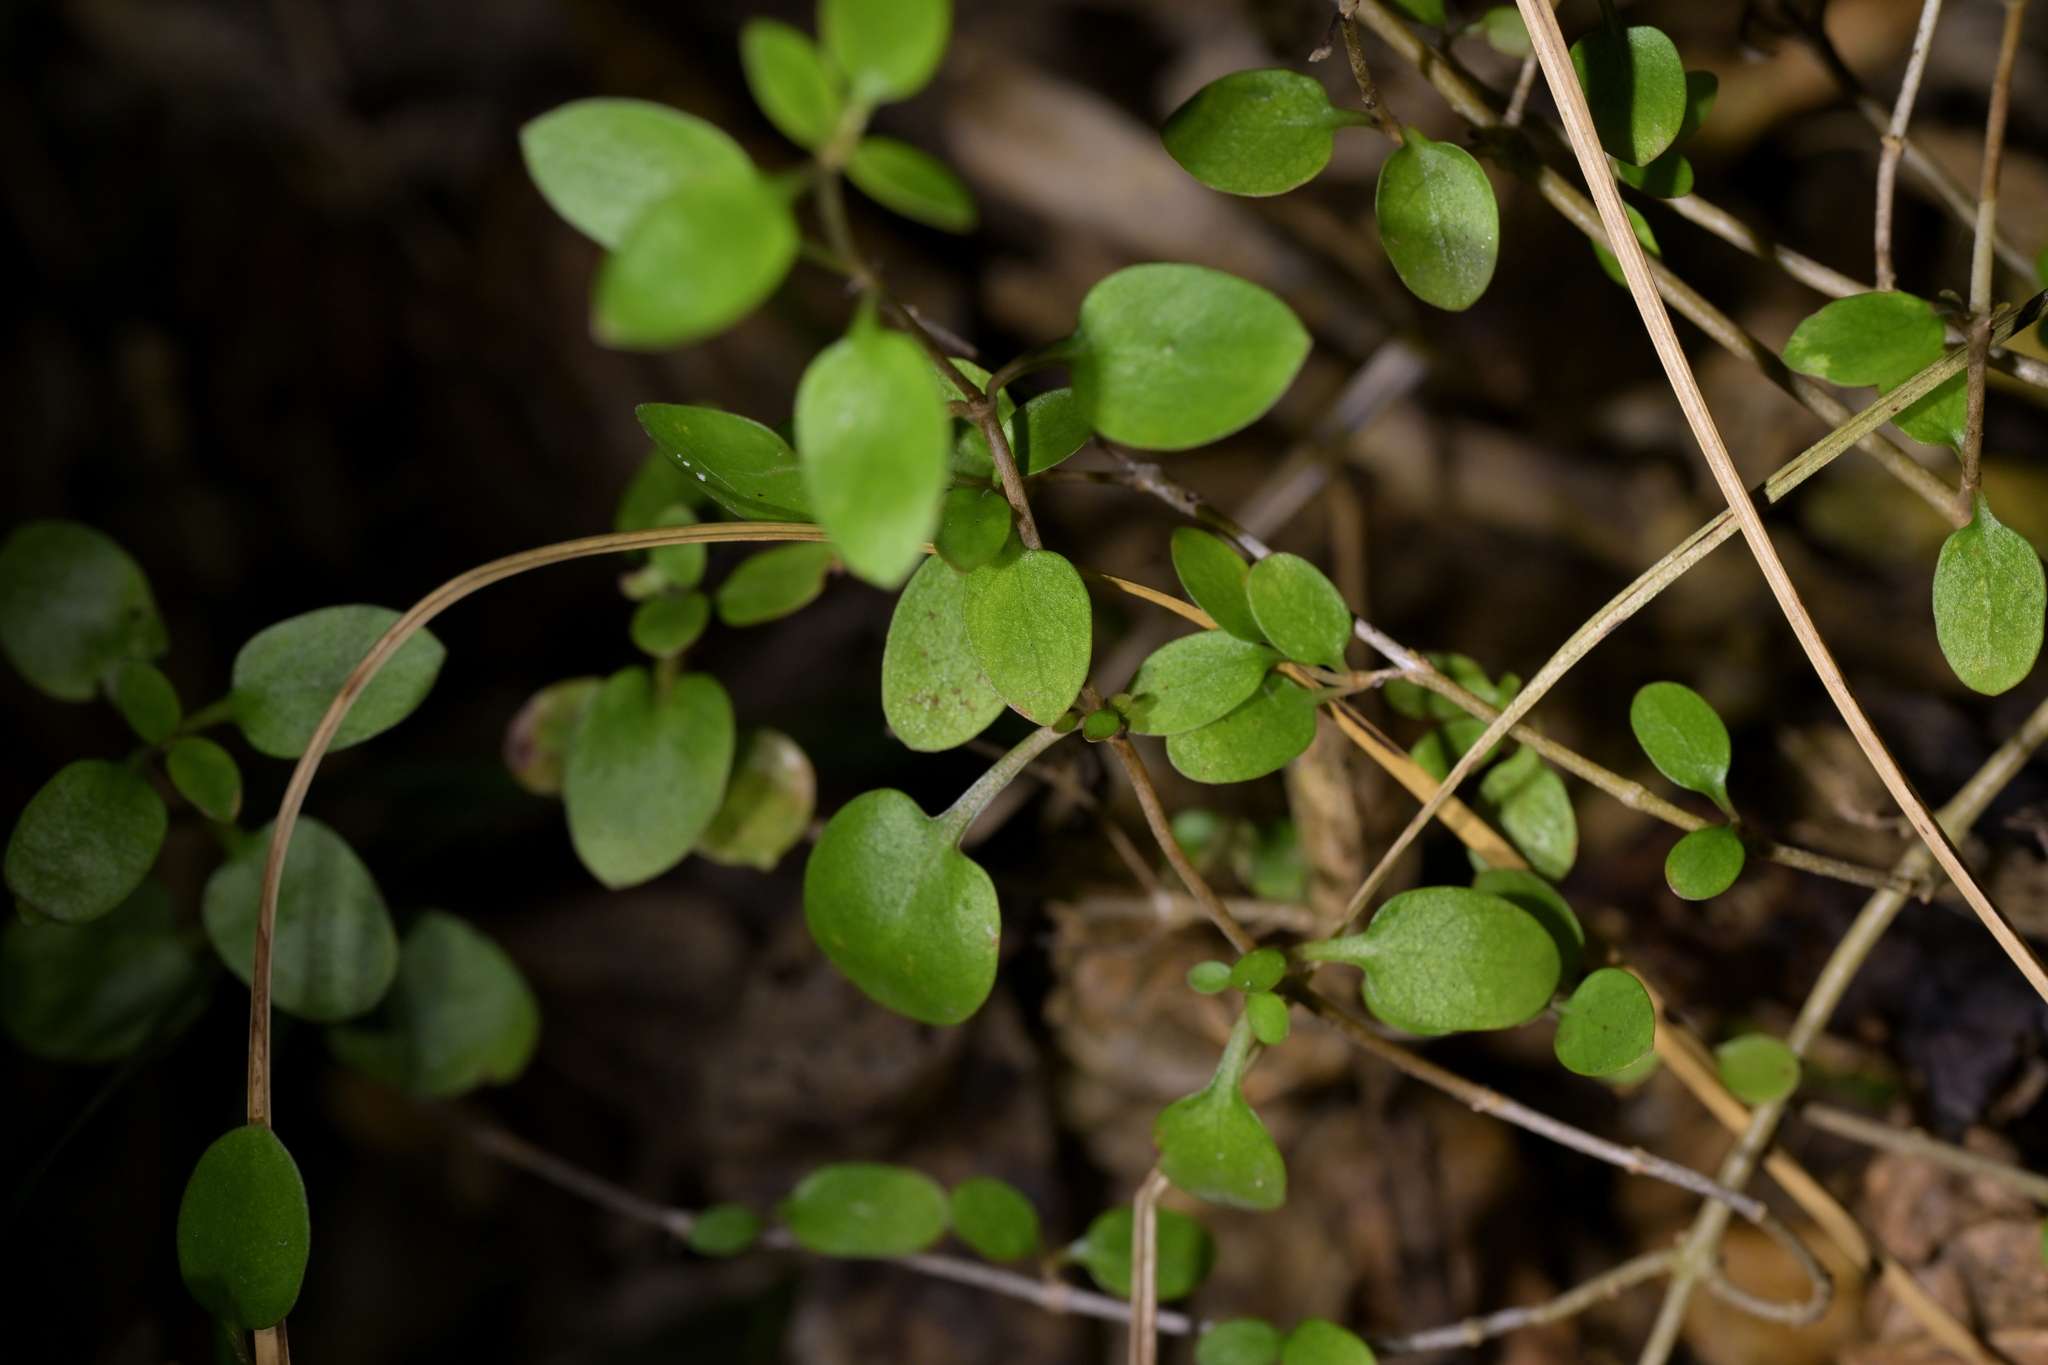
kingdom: Plantae
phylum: Tracheophyta
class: Magnoliopsida
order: Gentianales
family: Rubiaceae
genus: Coprosma
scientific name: Coprosma propinqua
